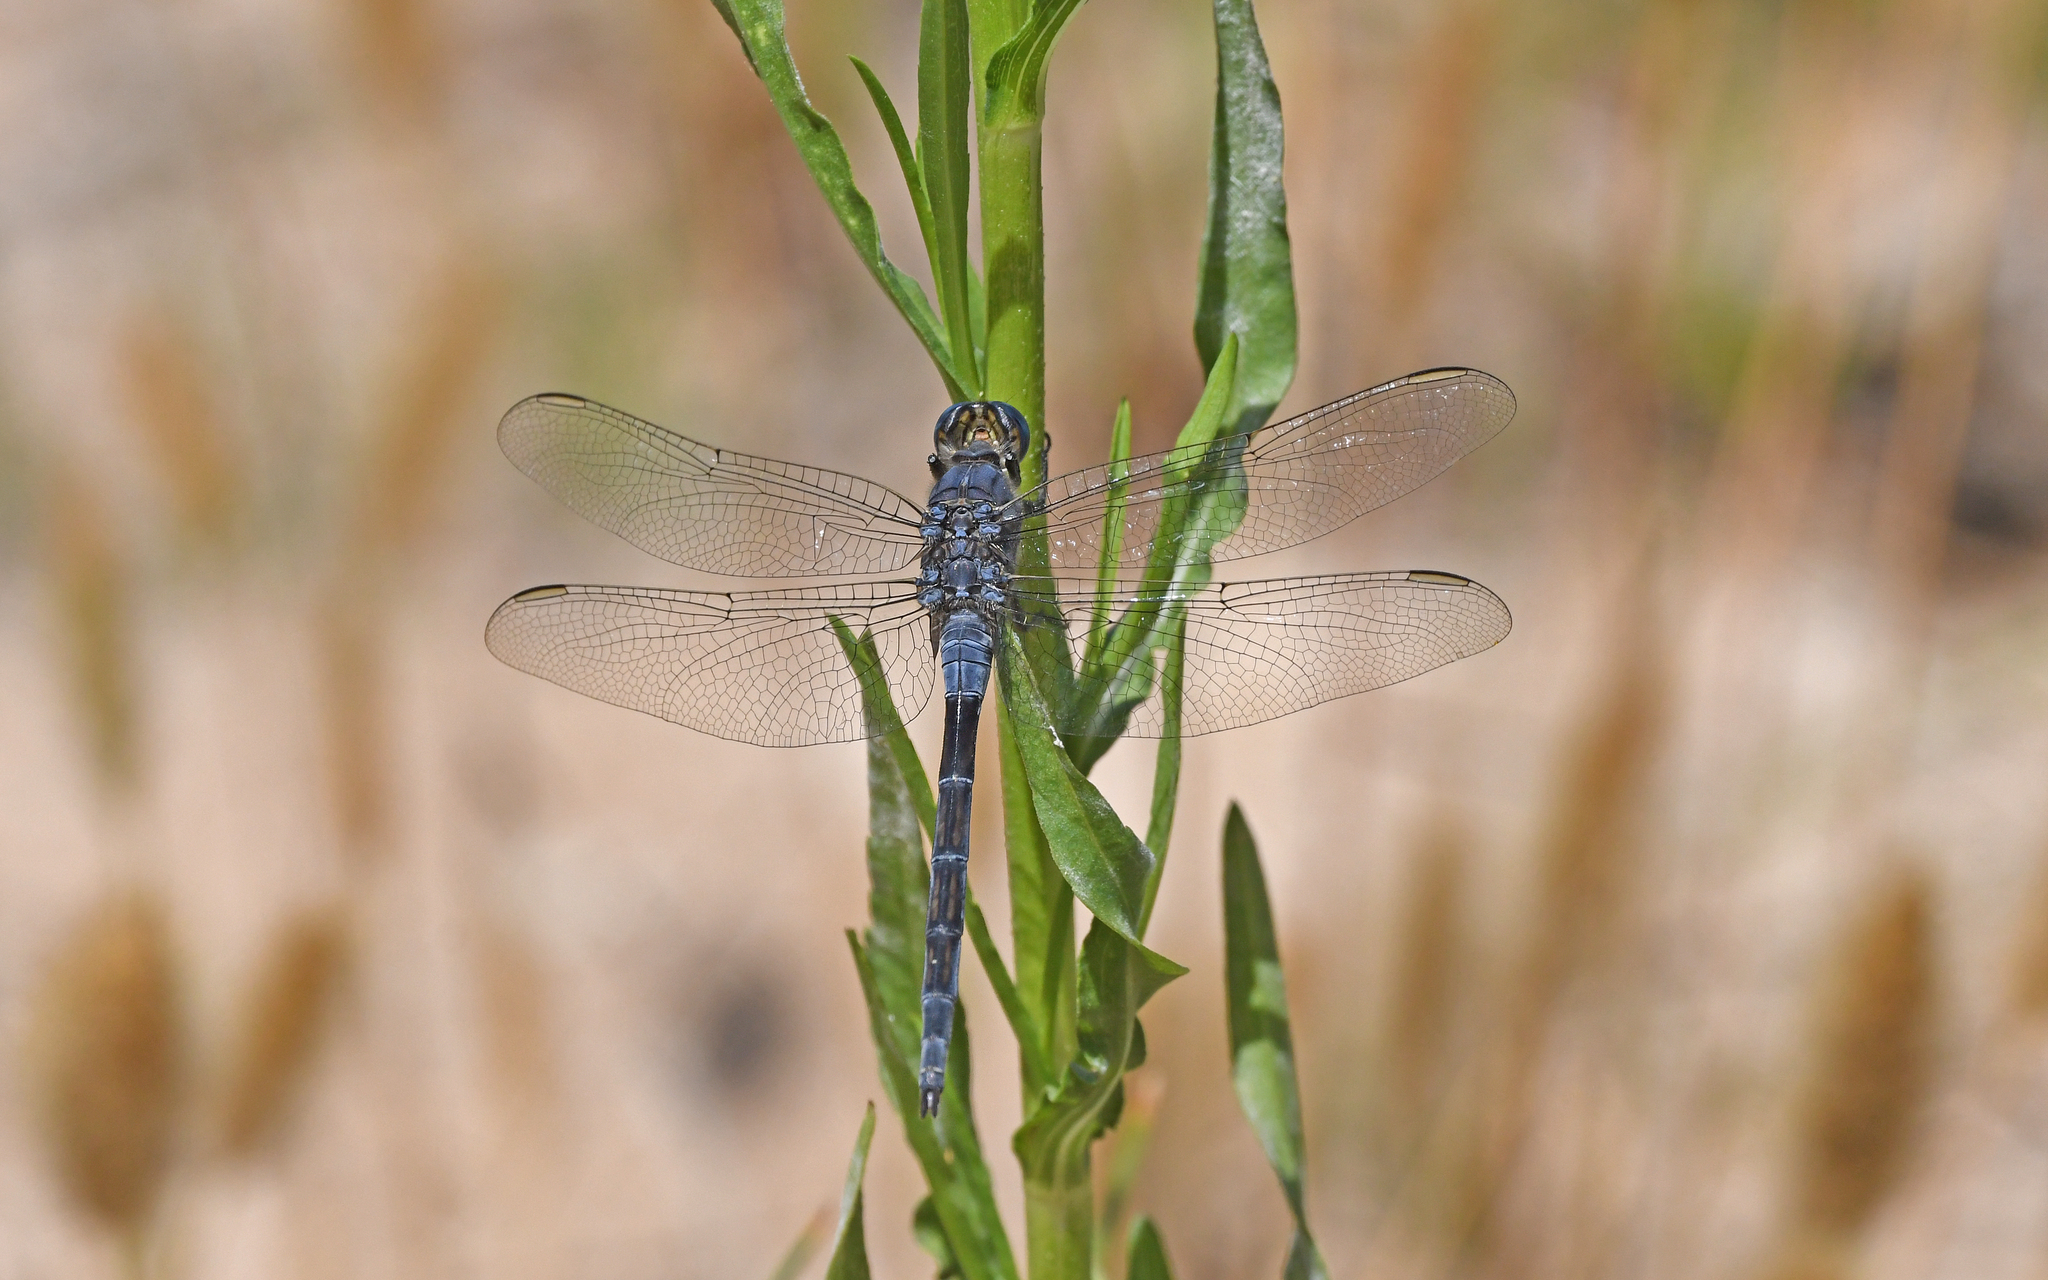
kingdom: Animalia
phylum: Arthropoda
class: Insecta
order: Odonata
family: Libellulidae
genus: Orthetrum
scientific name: Orthetrum trinacria
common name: Long skimmer
